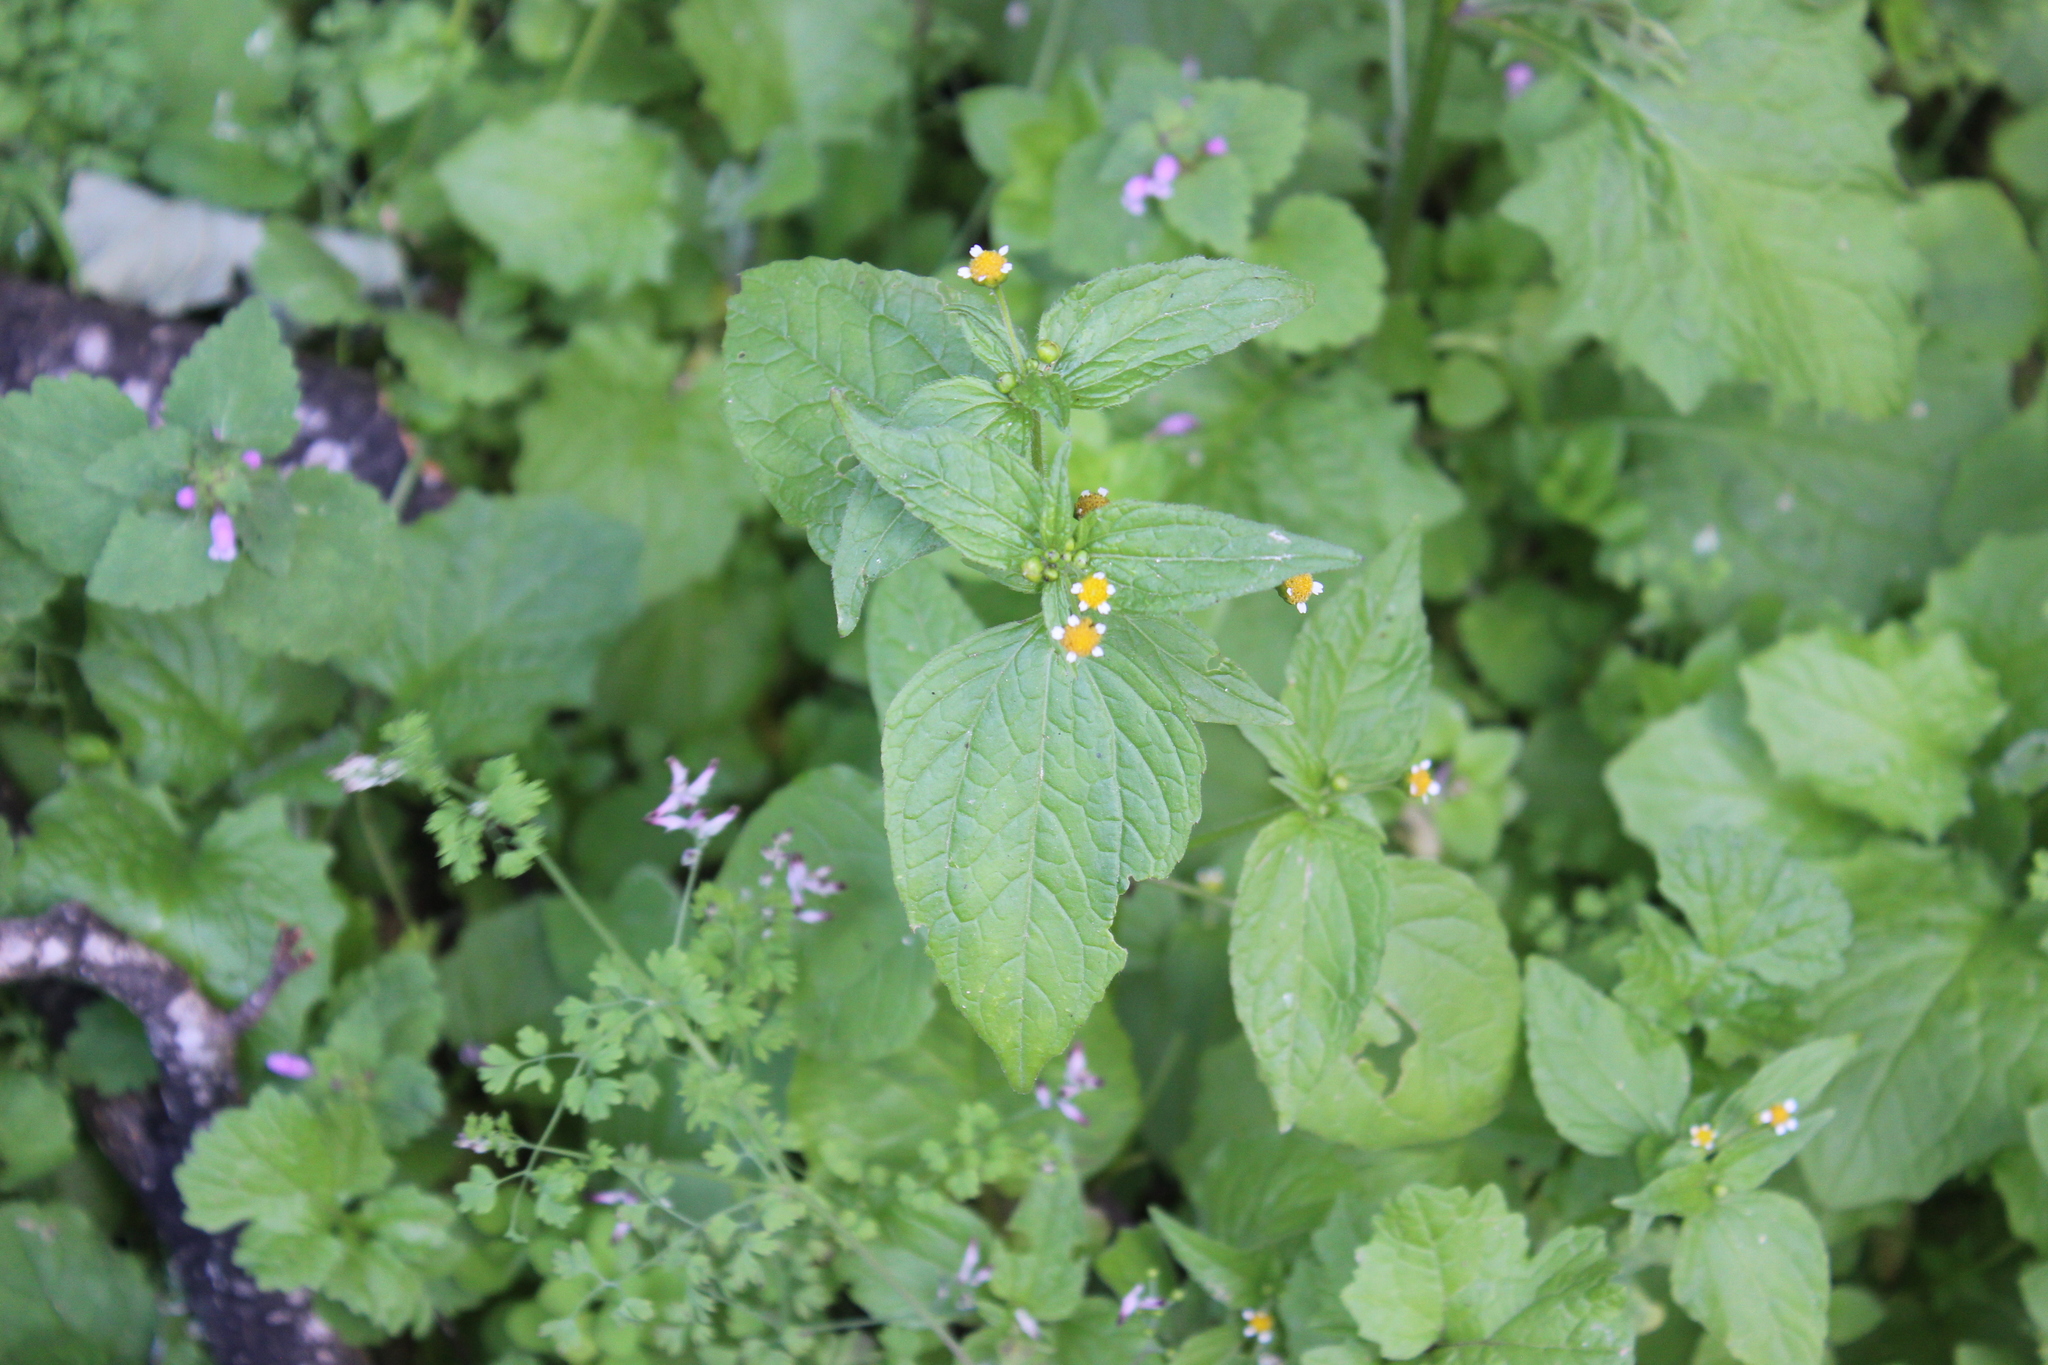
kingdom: Plantae
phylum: Tracheophyta
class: Magnoliopsida
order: Asterales
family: Asteraceae
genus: Galinsoga
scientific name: Galinsoga parviflora
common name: Gallant soldier
